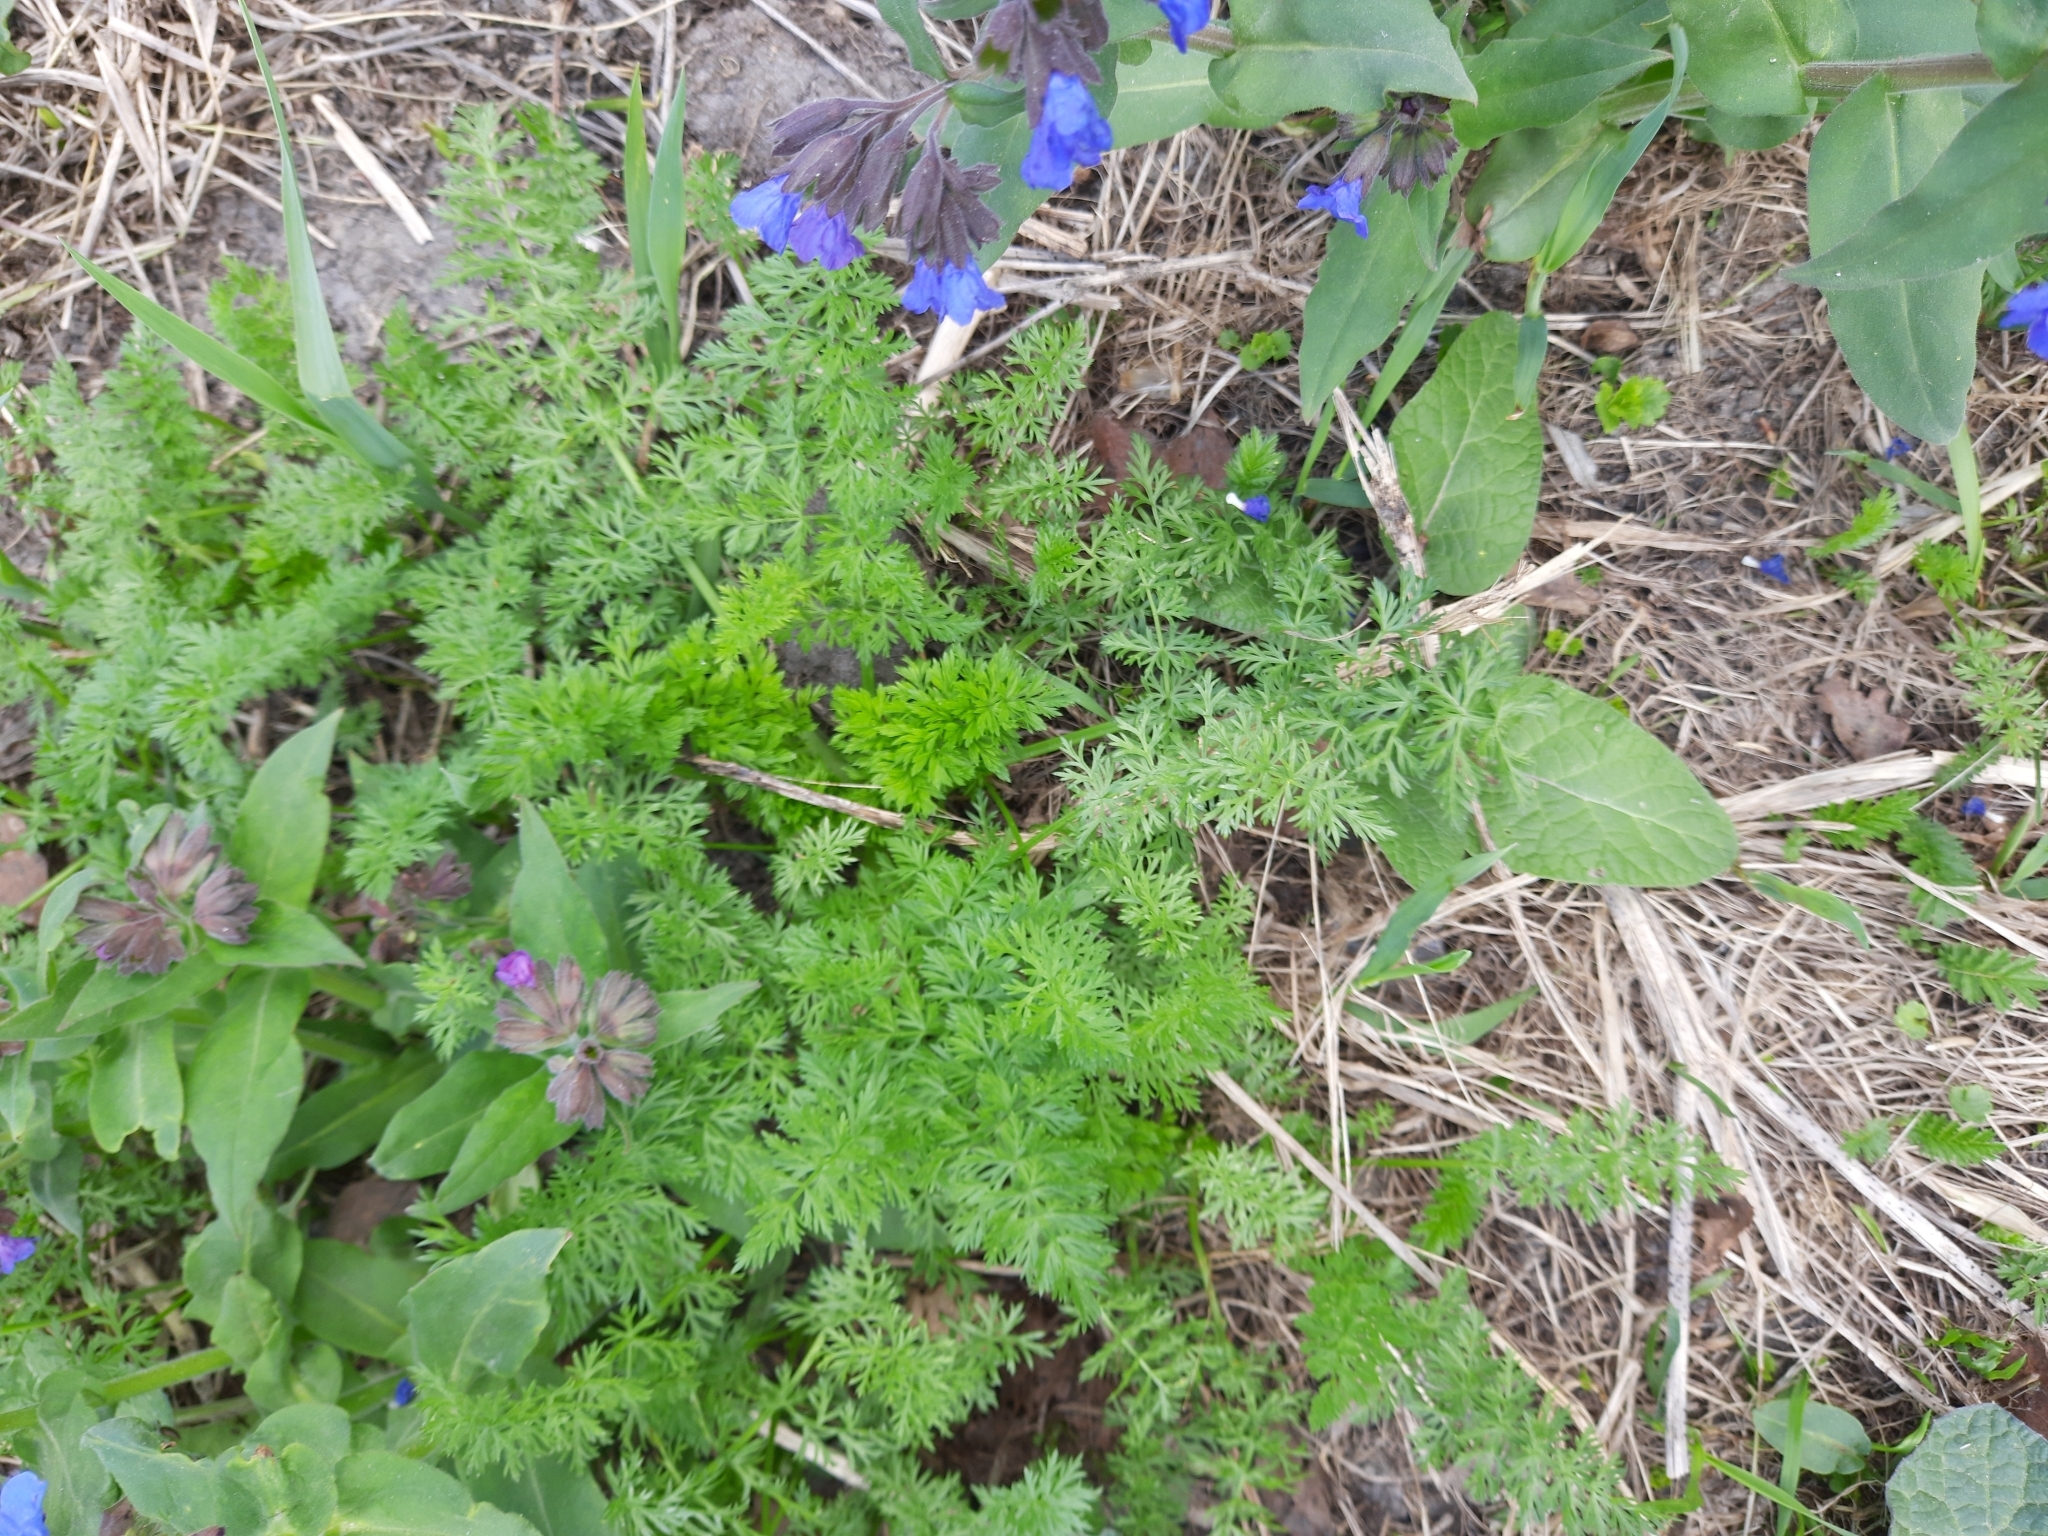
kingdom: Plantae
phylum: Tracheophyta
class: Magnoliopsida
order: Apiales
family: Apiaceae
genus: Carum
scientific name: Carum carvi
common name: Caraway
